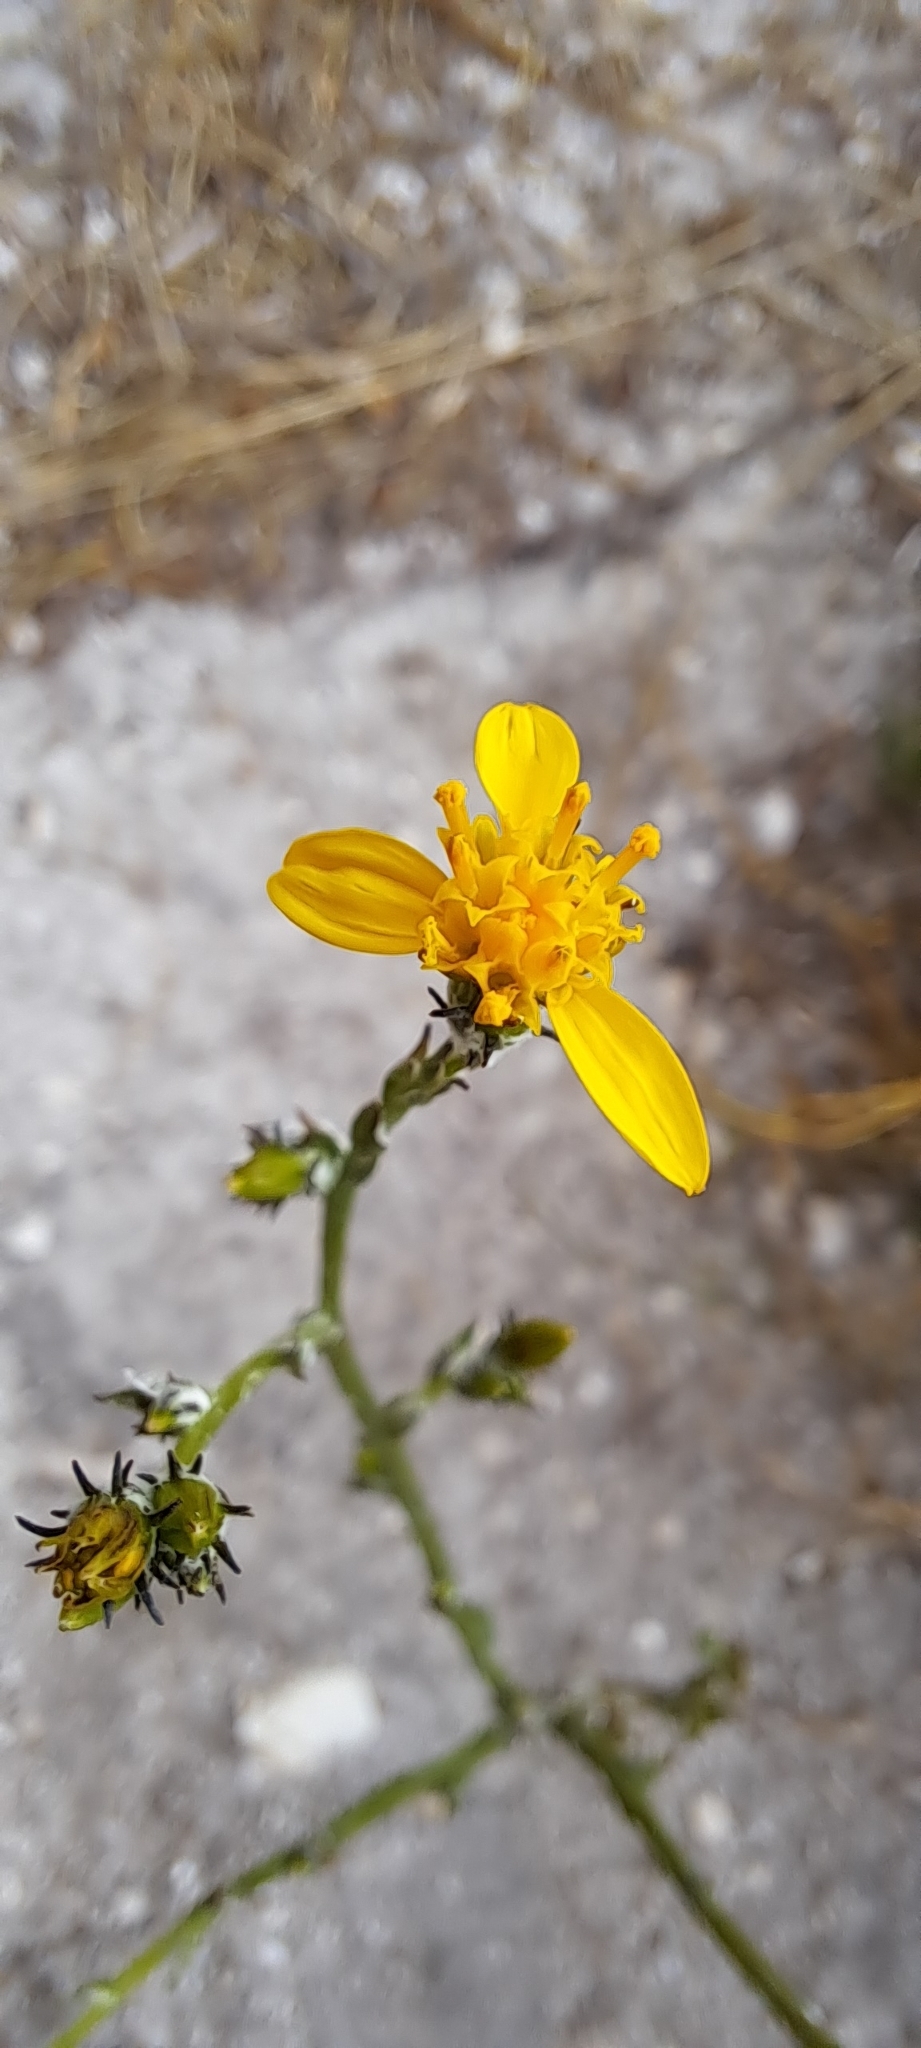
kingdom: Plantae
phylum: Tracheophyta
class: Magnoliopsida
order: Asterales
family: Asteraceae
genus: Senecio
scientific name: Senecio pubigerus
